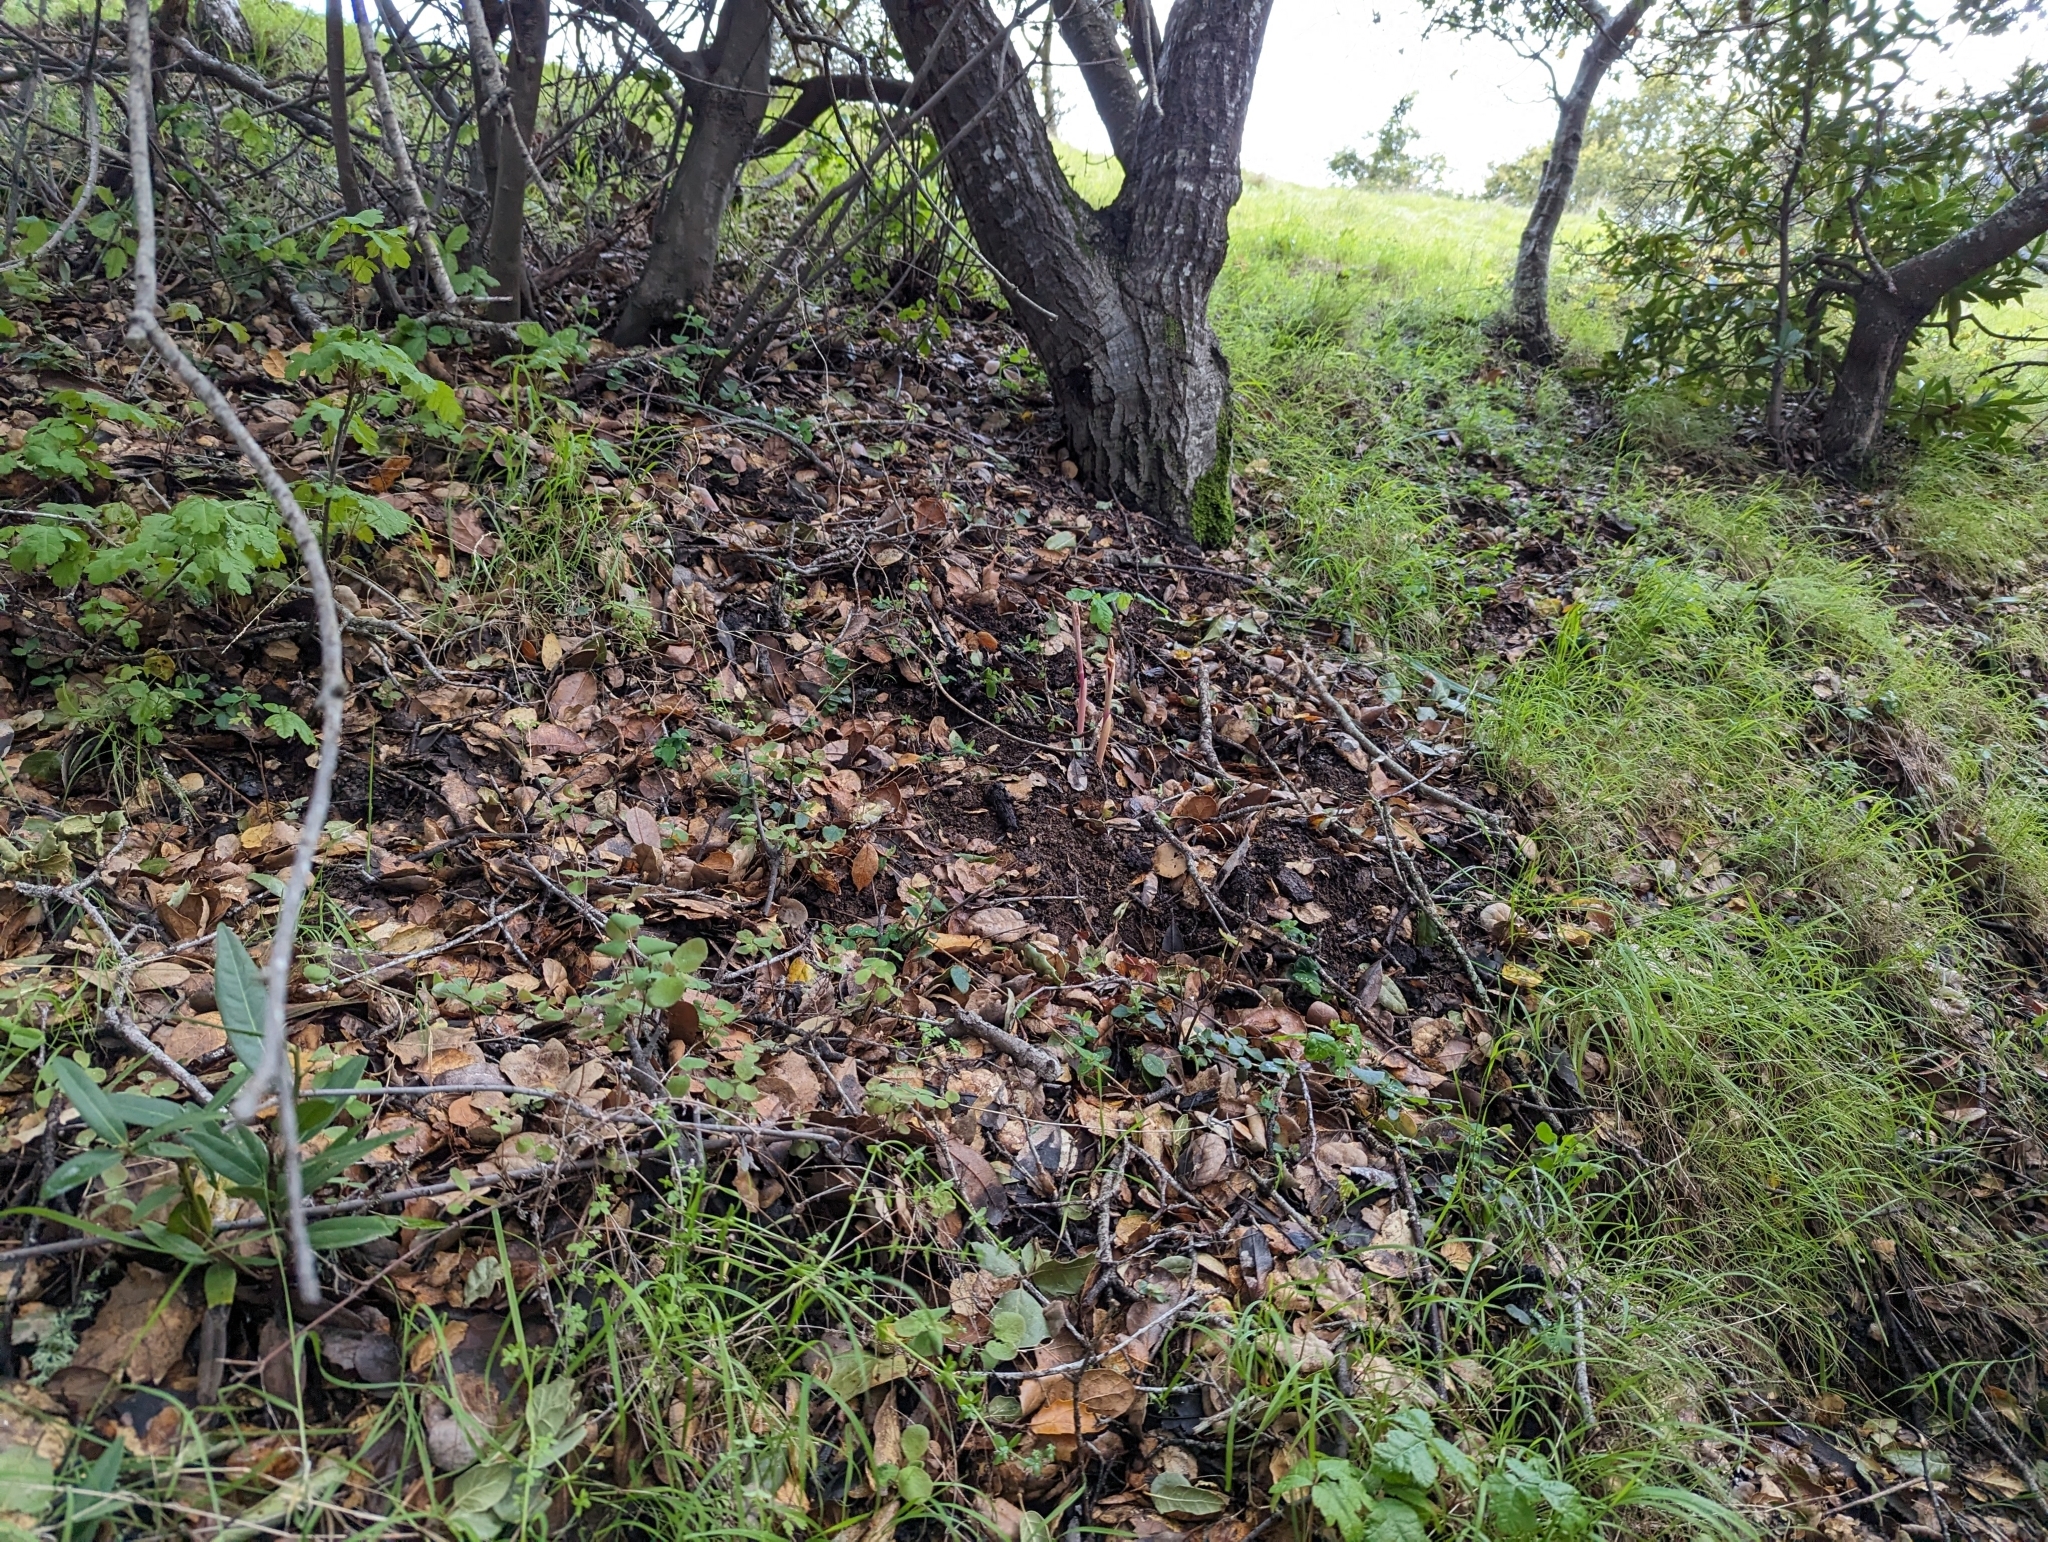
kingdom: Plantae
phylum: Tracheophyta
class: Liliopsida
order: Asparagales
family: Orchidaceae
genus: Corallorhiza
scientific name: Corallorhiza striata
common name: Hooded coralroot
